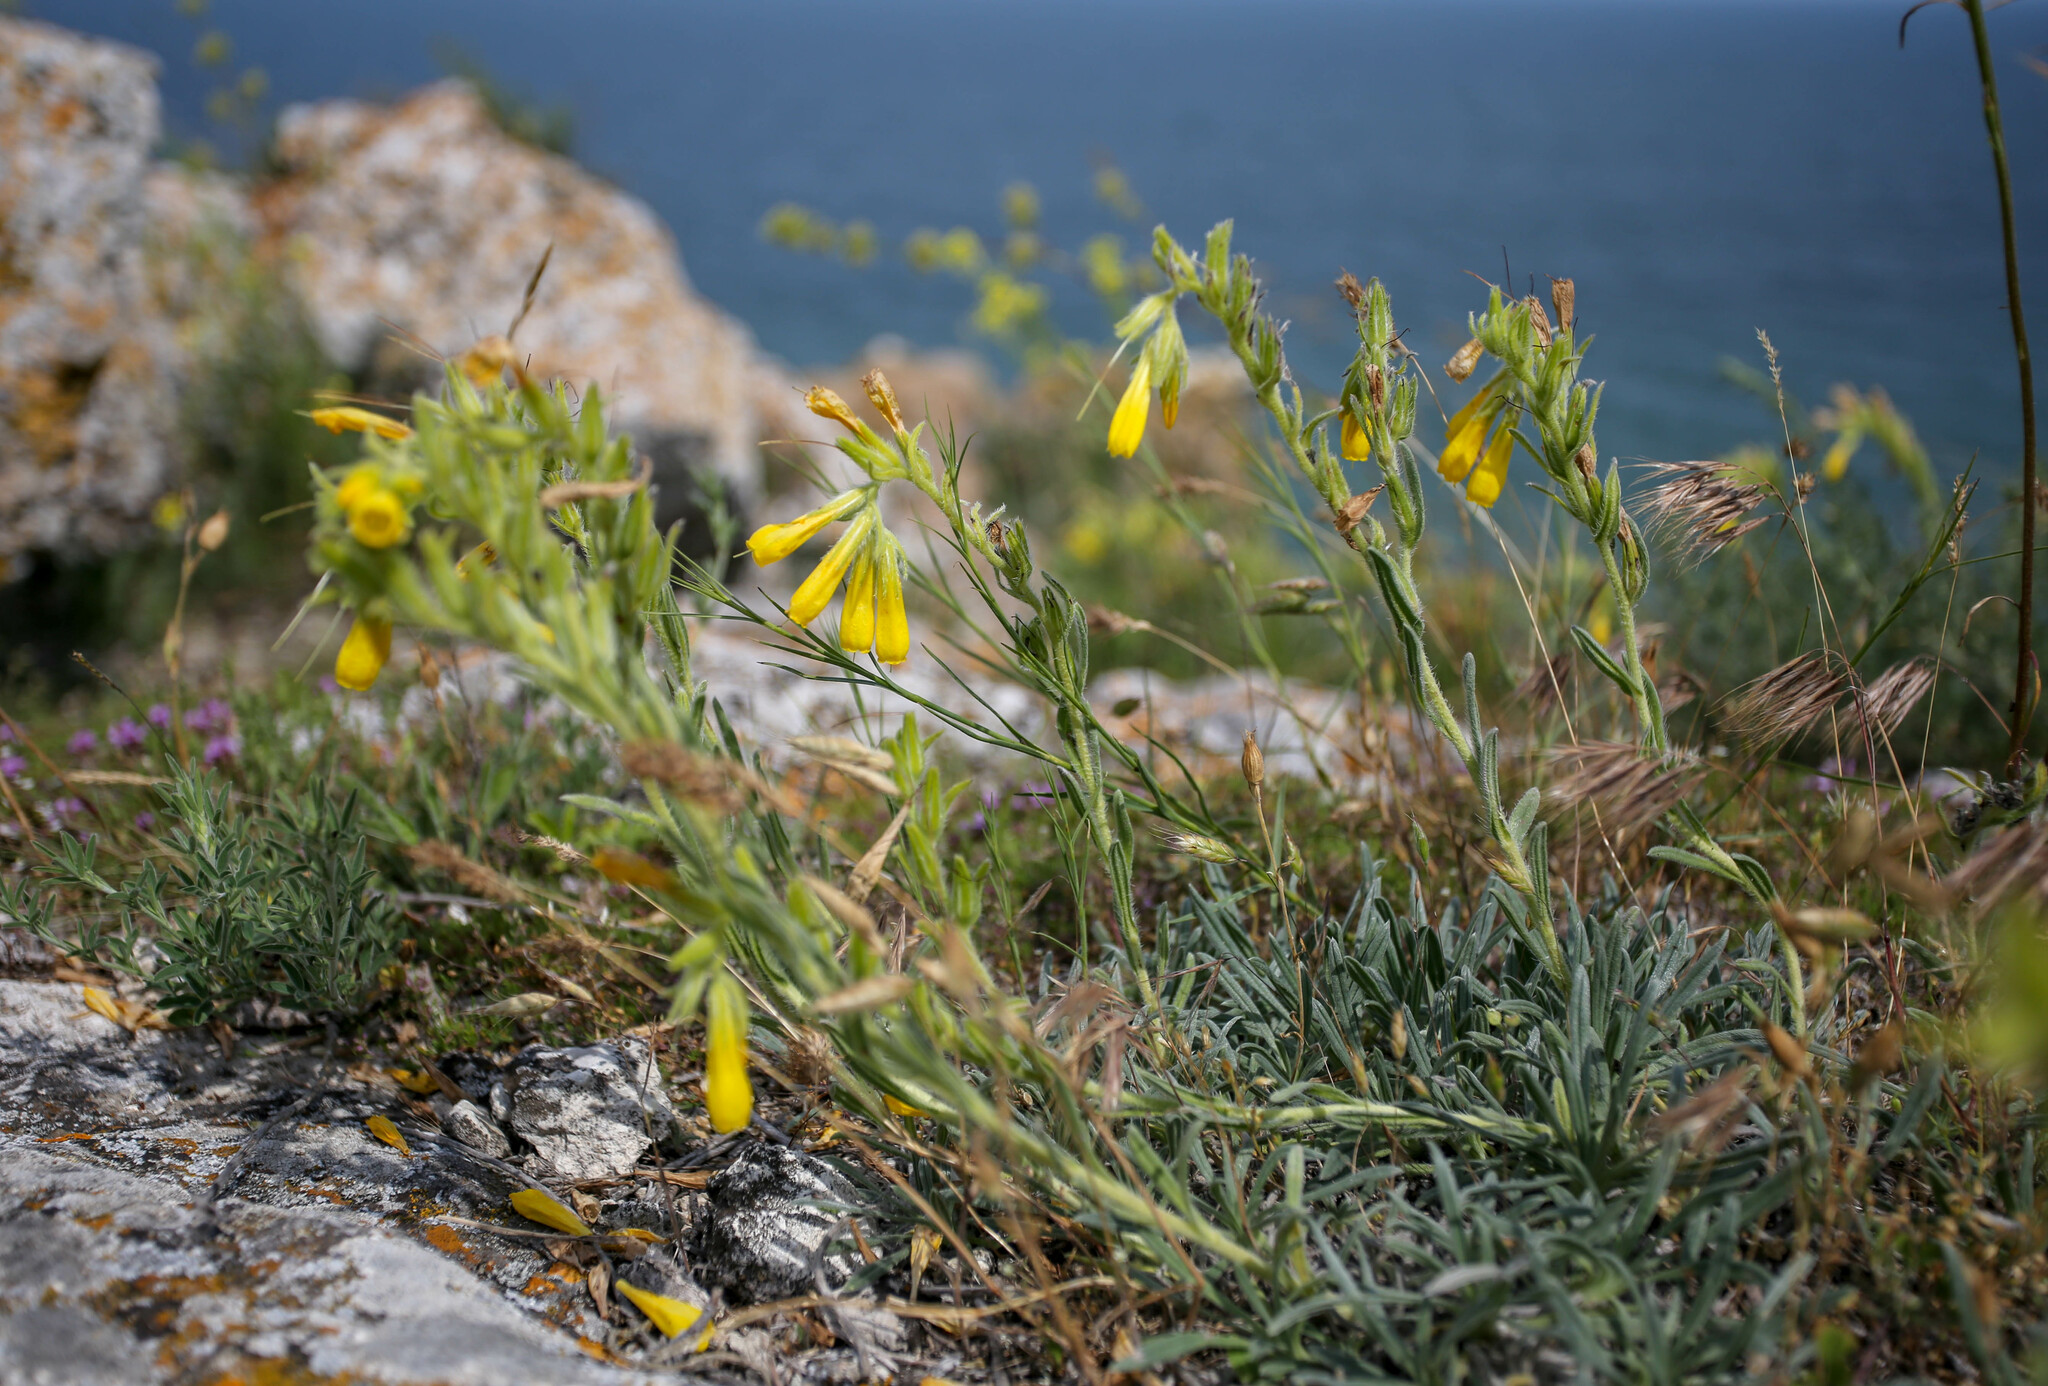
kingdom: Plantae
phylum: Tracheophyta
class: Magnoliopsida
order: Boraginales
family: Boraginaceae
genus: Onosma
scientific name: Onosma taurica
